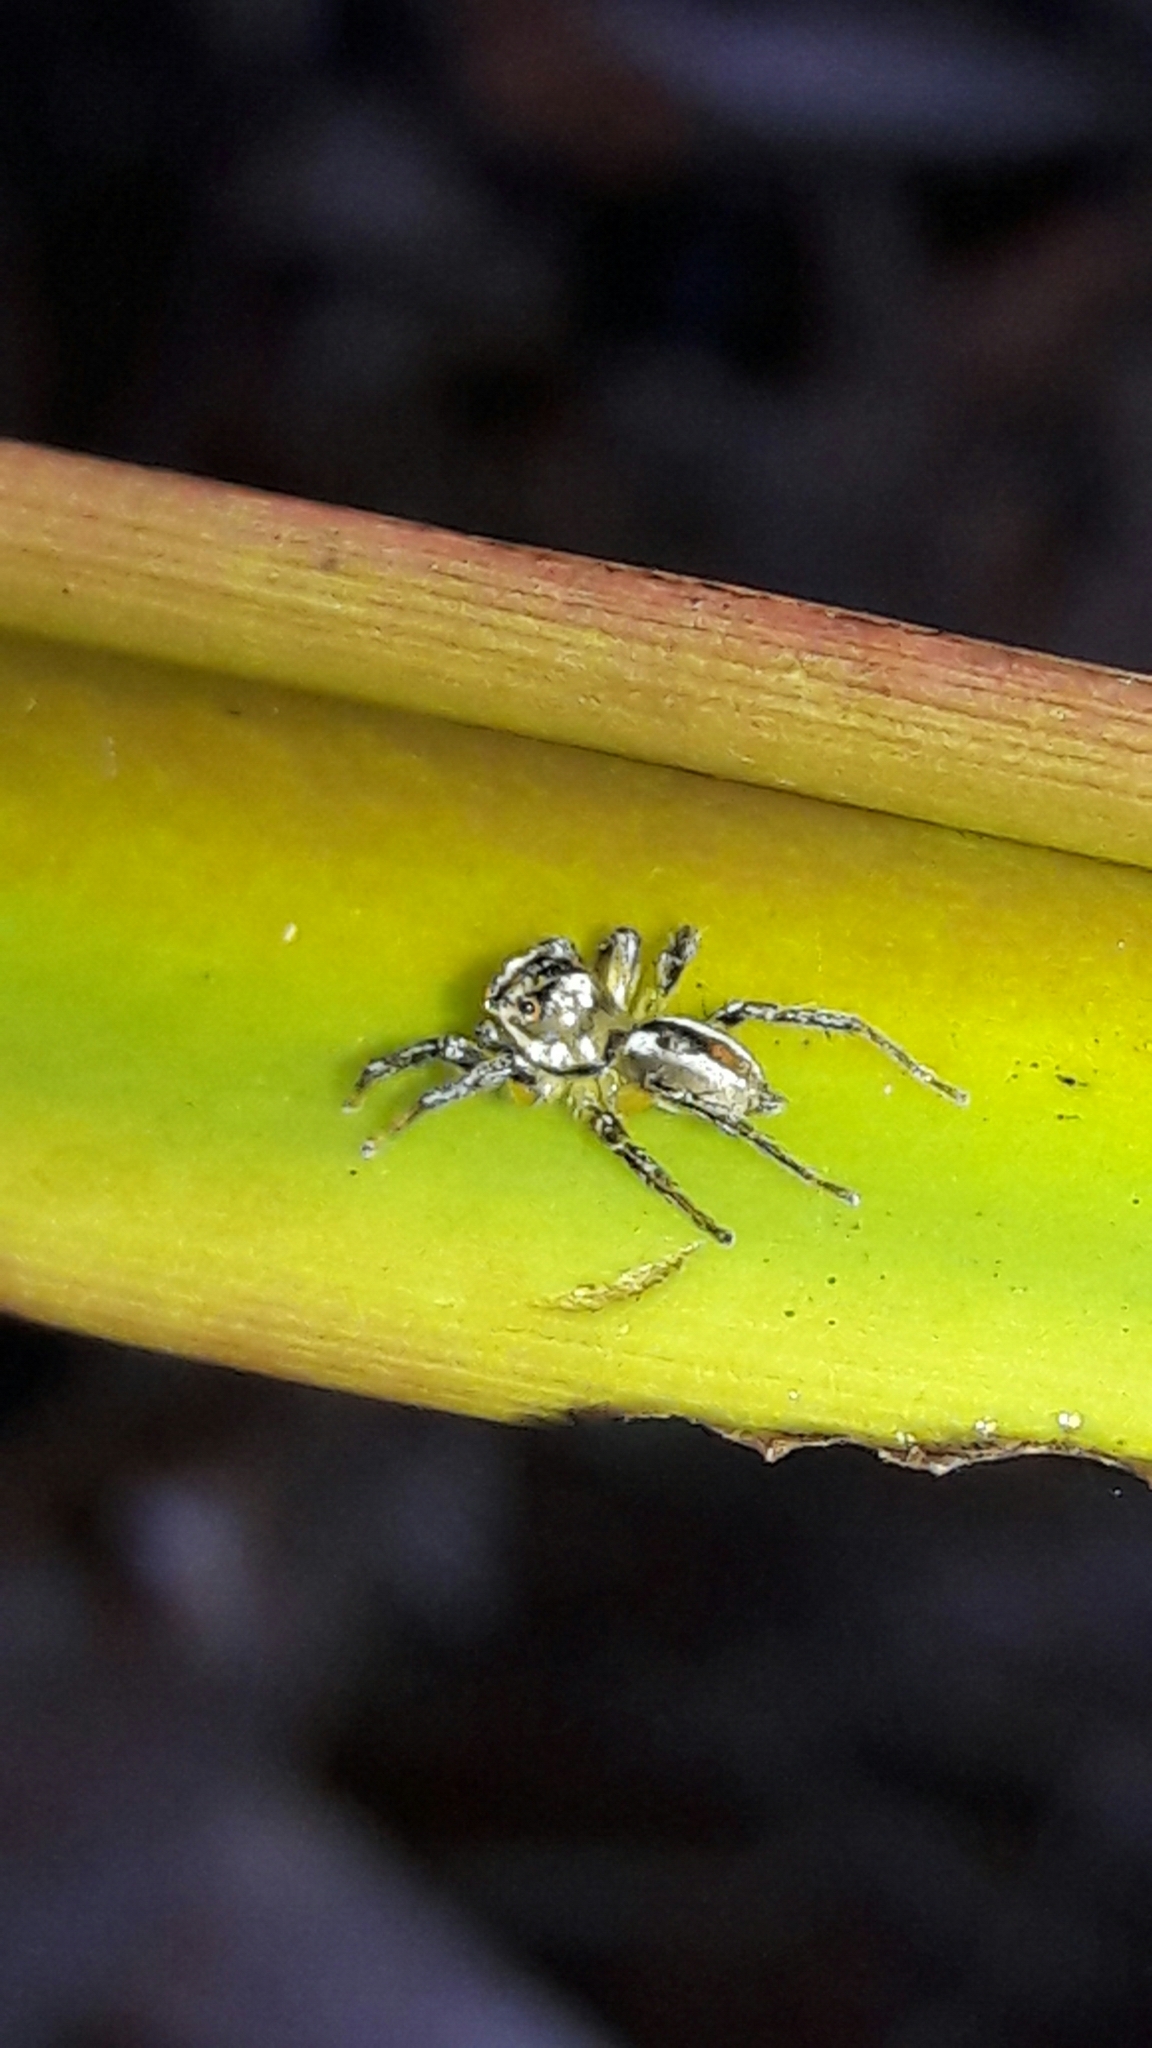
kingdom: Animalia
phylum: Arthropoda
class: Arachnida
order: Araneae
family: Salticidae
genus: Chira
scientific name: Chira simoni
